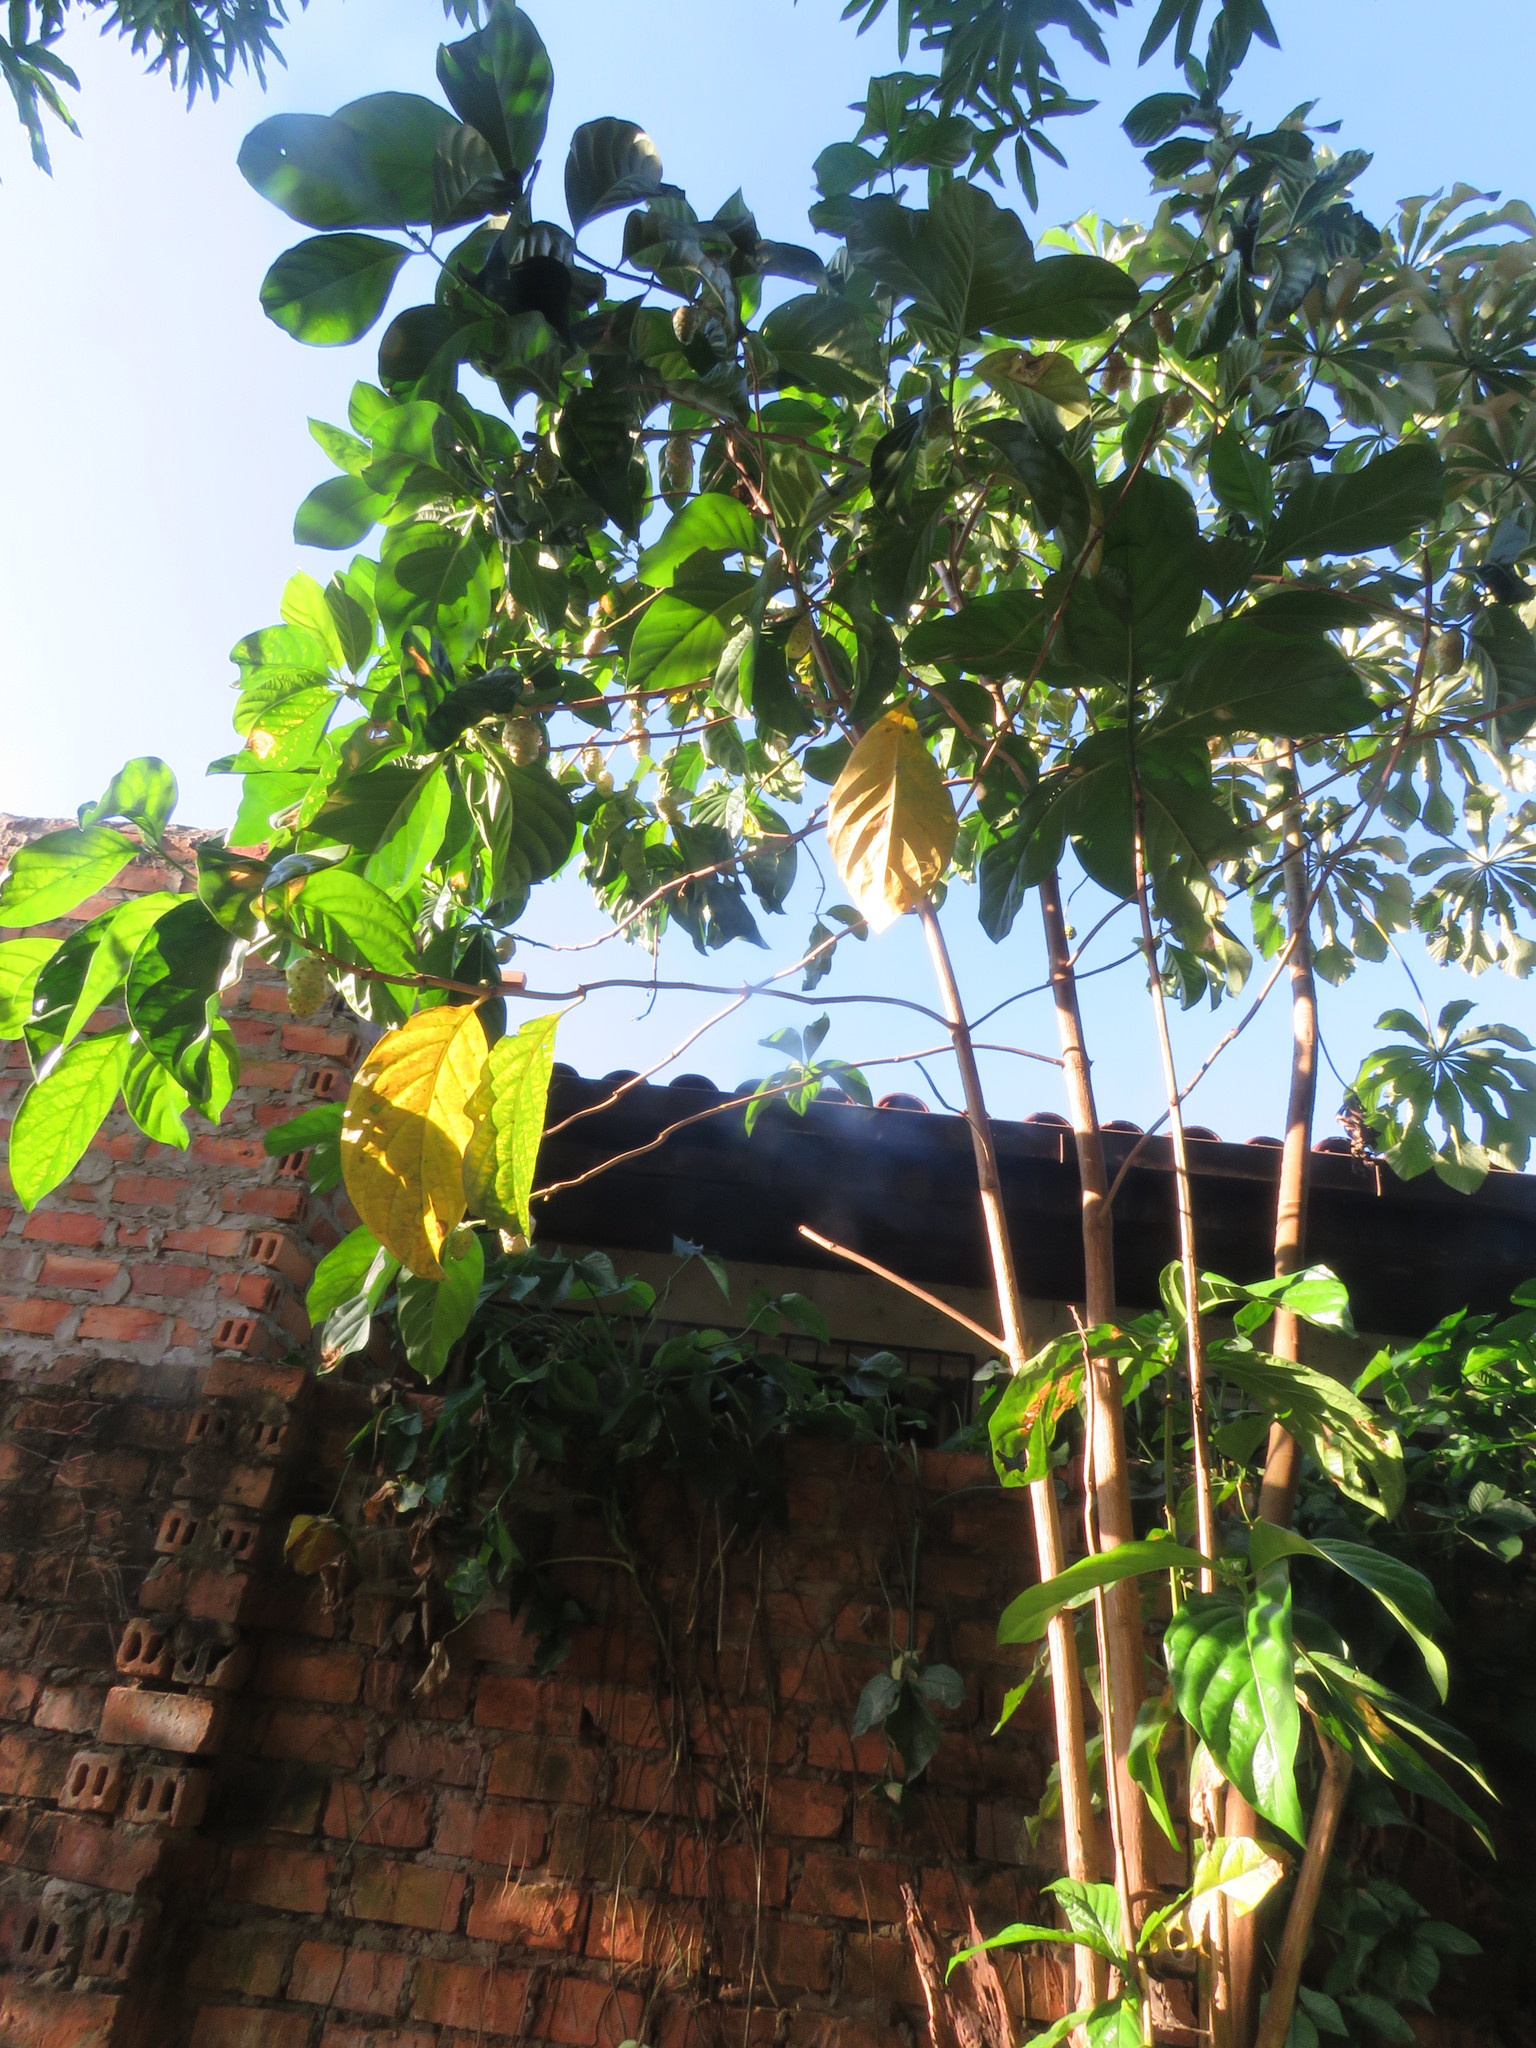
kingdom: Plantae
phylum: Tracheophyta
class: Magnoliopsida
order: Gentianales
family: Rubiaceae
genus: Morinda
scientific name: Morinda citrifolia
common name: Indian-mulberry
